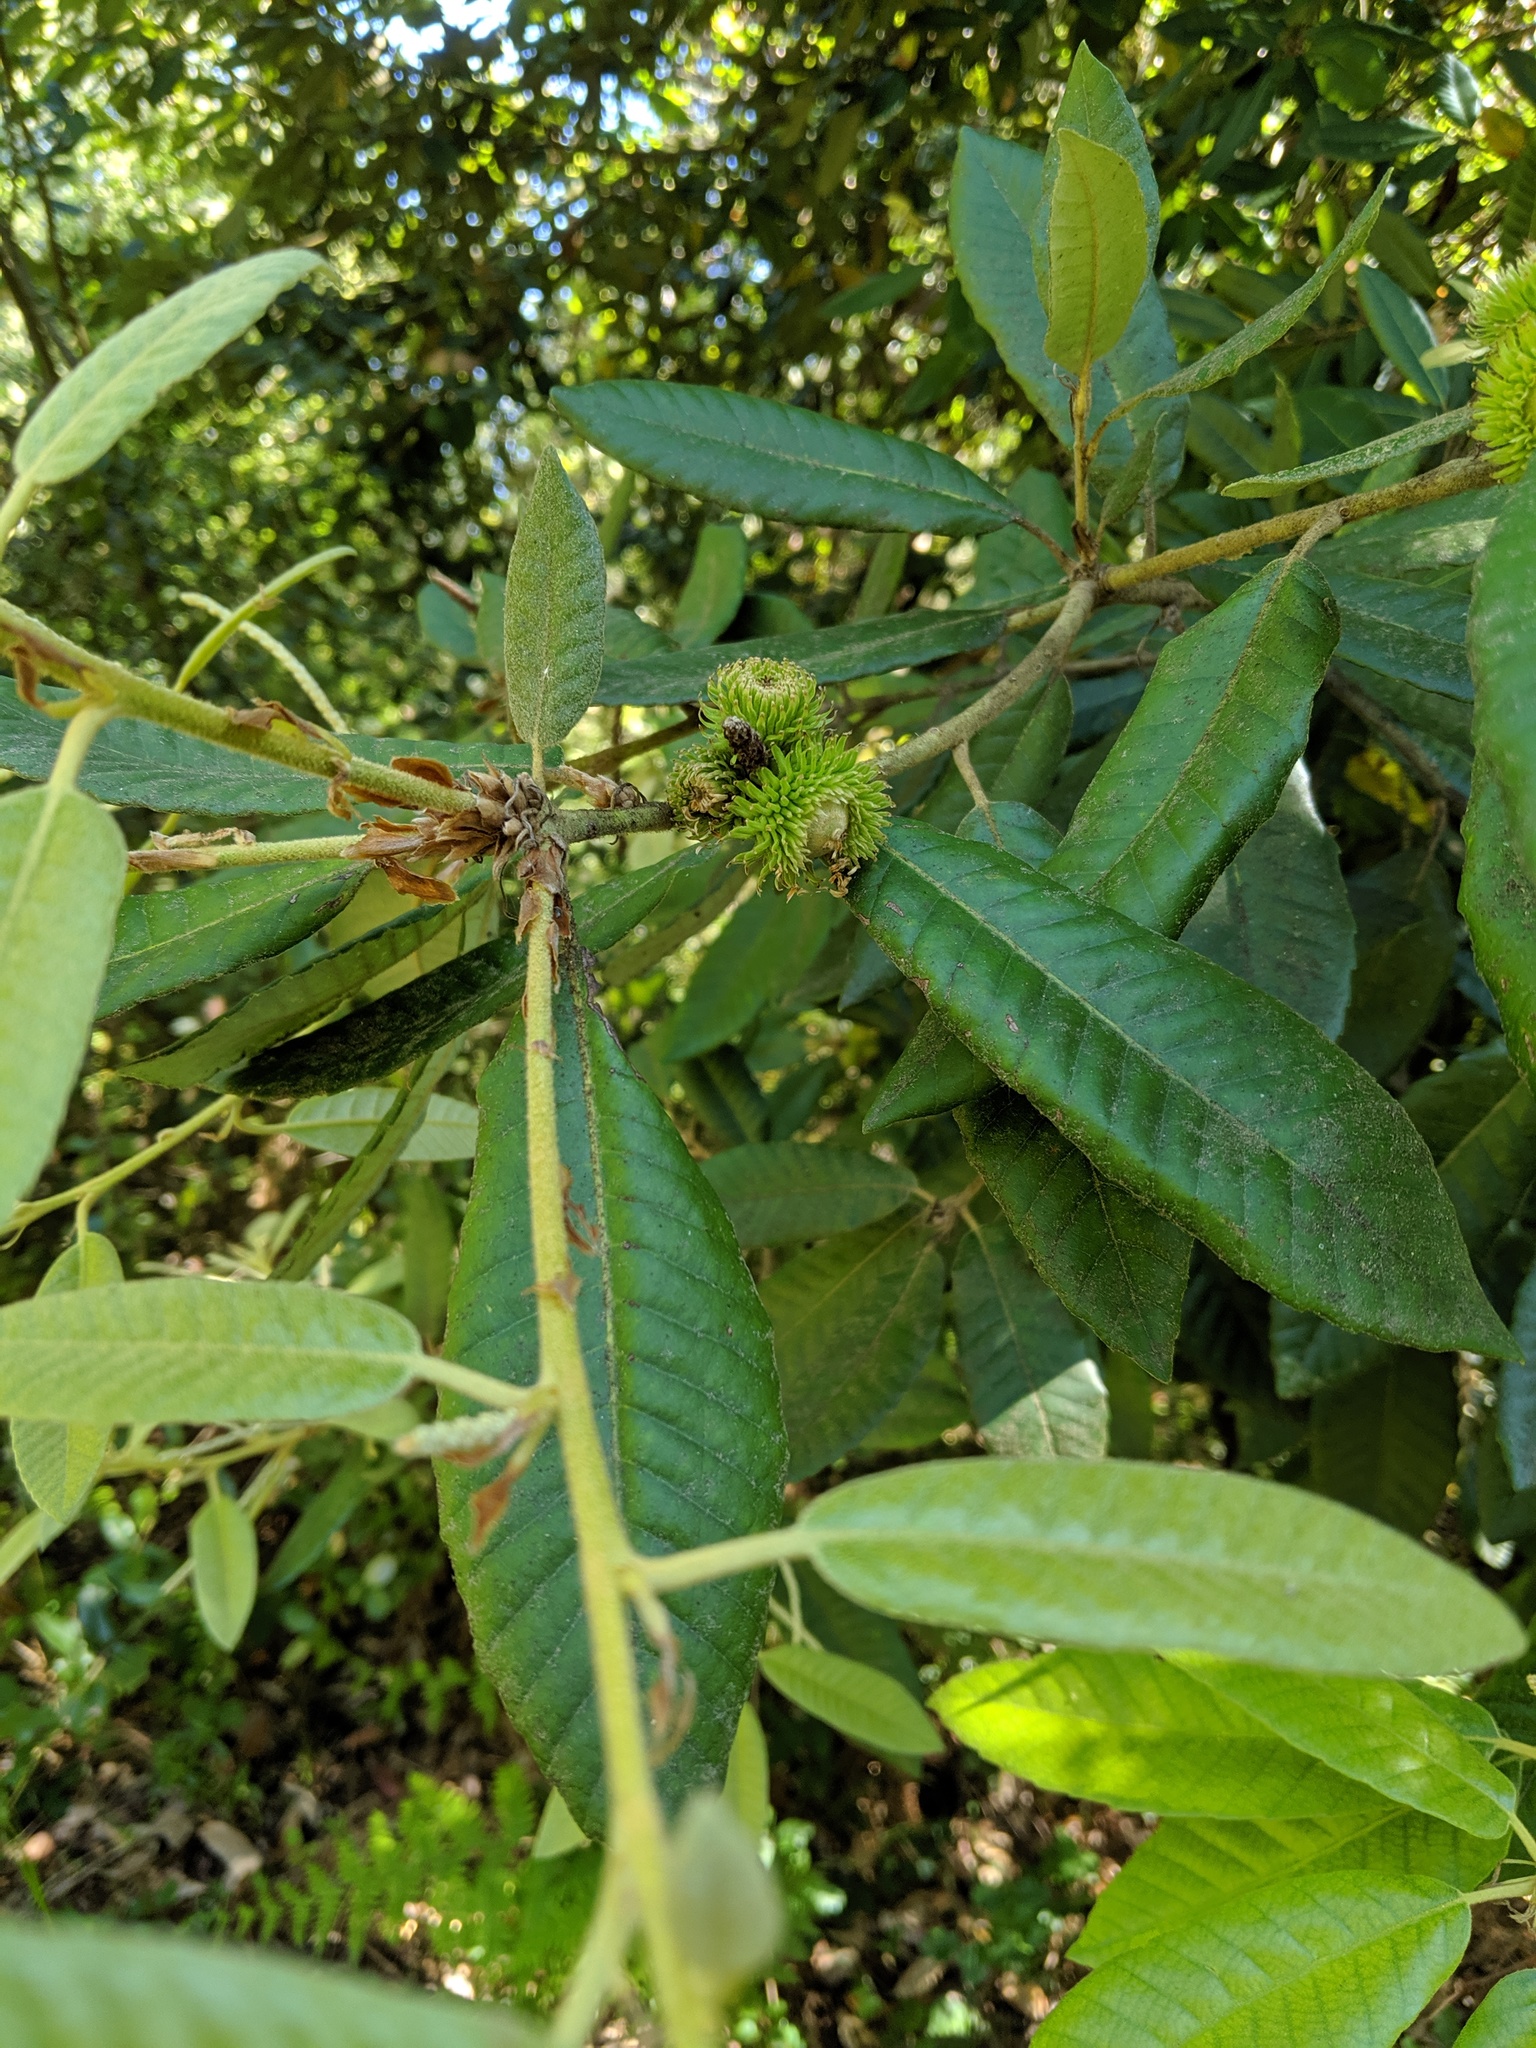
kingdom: Plantae
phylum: Tracheophyta
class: Magnoliopsida
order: Fagales
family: Fagaceae
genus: Chrysolepis
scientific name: Chrysolepis chrysophylla
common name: Giant chinquapin
